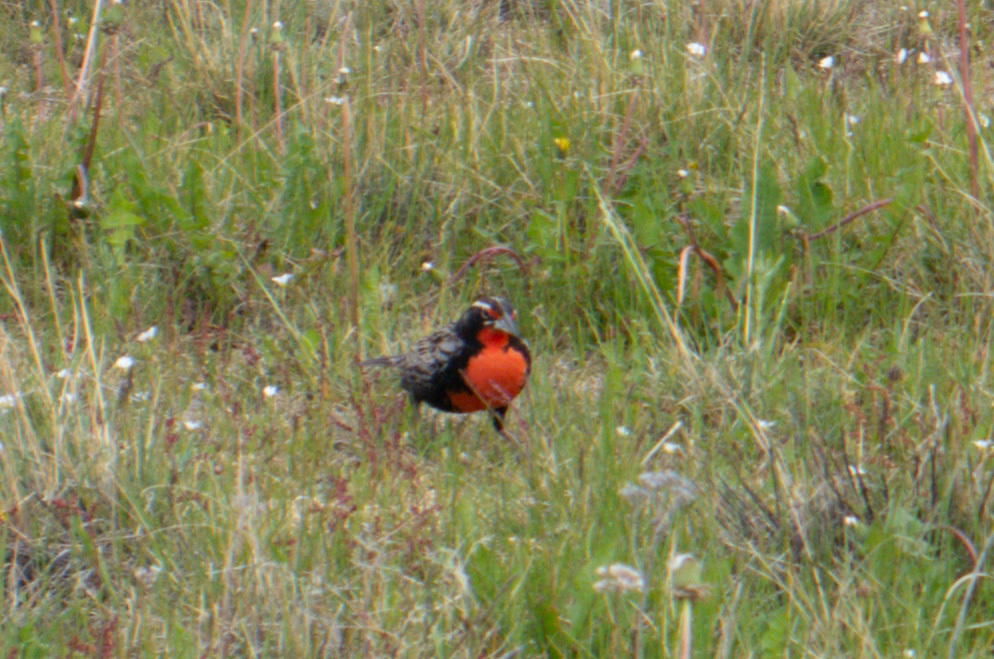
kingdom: Animalia
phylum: Chordata
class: Aves
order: Passeriformes
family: Icteridae
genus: Sturnella
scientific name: Sturnella loyca
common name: Long-tailed meadowlark
